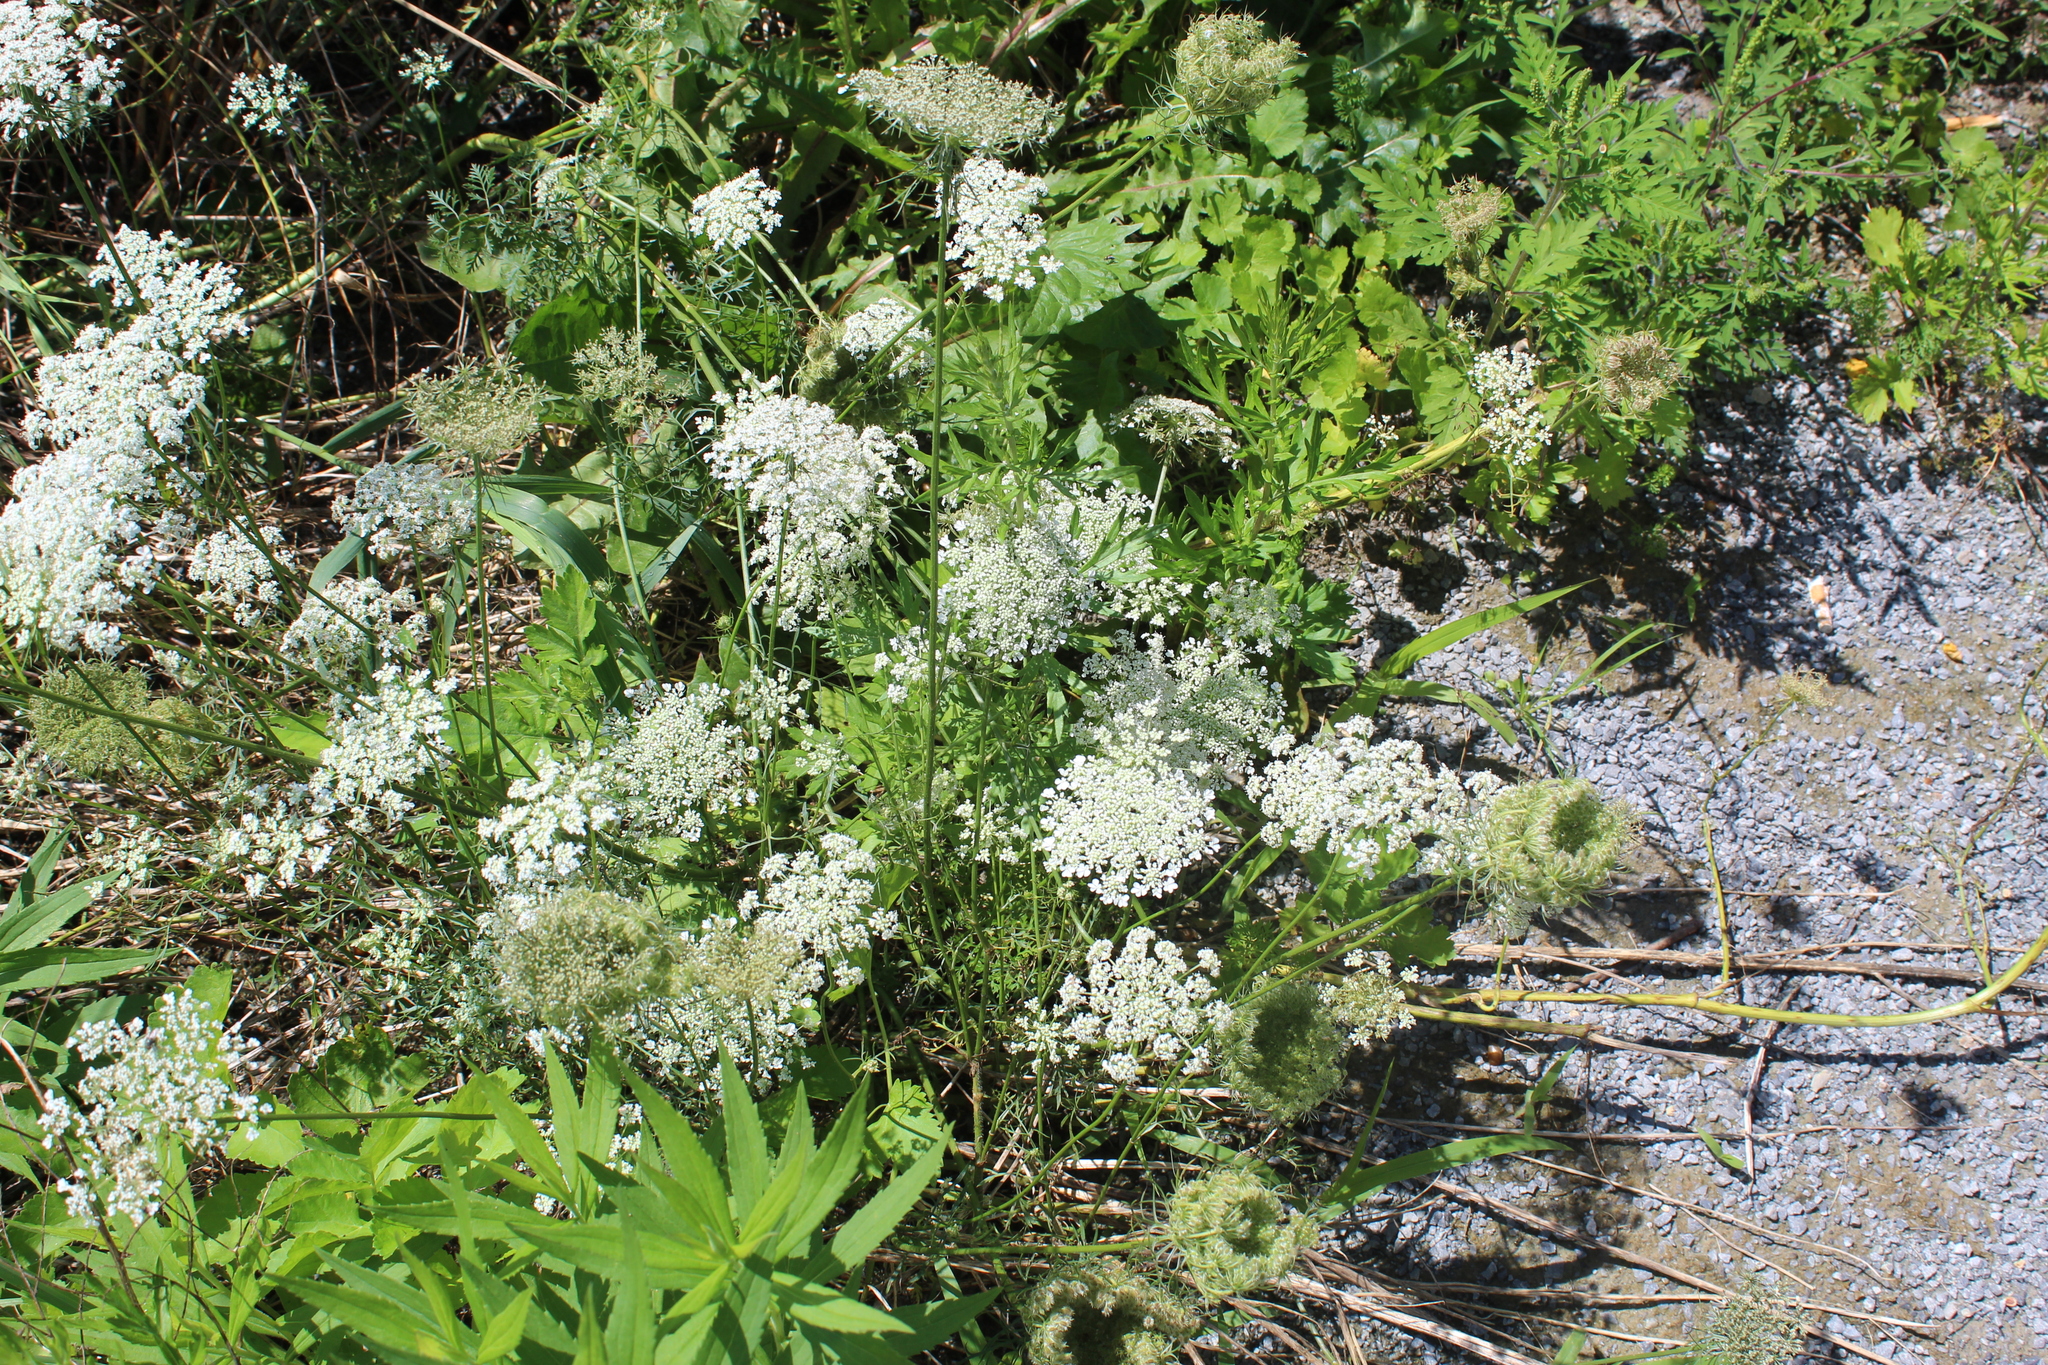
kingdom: Plantae
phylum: Tracheophyta
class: Magnoliopsida
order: Apiales
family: Apiaceae
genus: Daucus
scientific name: Daucus carota
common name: Wild carrot
